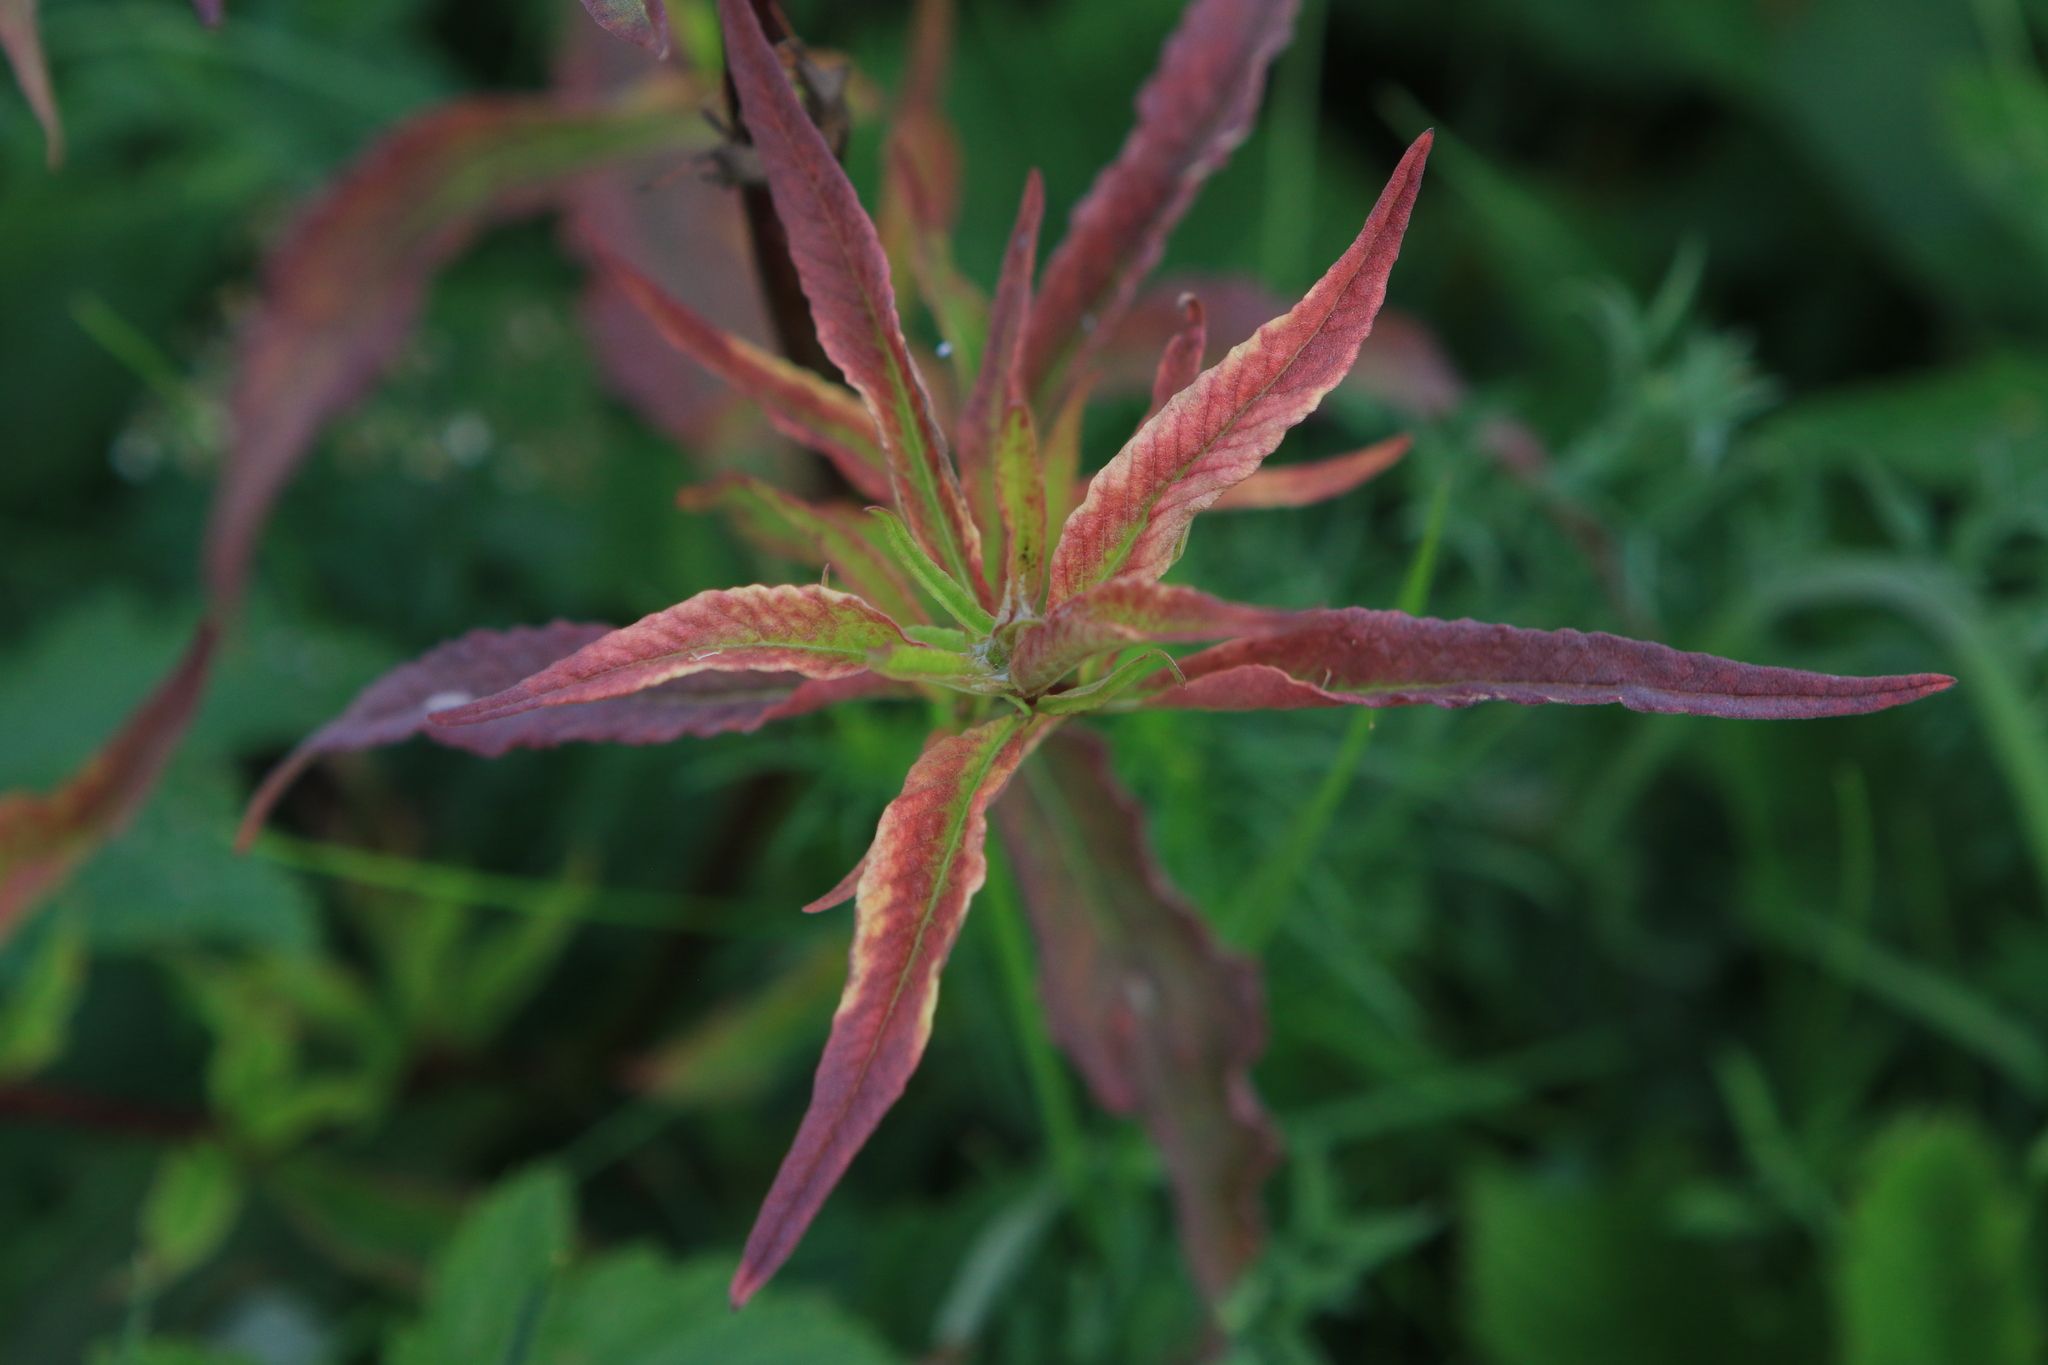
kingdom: Plantae
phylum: Tracheophyta
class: Magnoliopsida
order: Caryophyllales
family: Polygonaceae
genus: Koenigia
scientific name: Koenigia alpina
